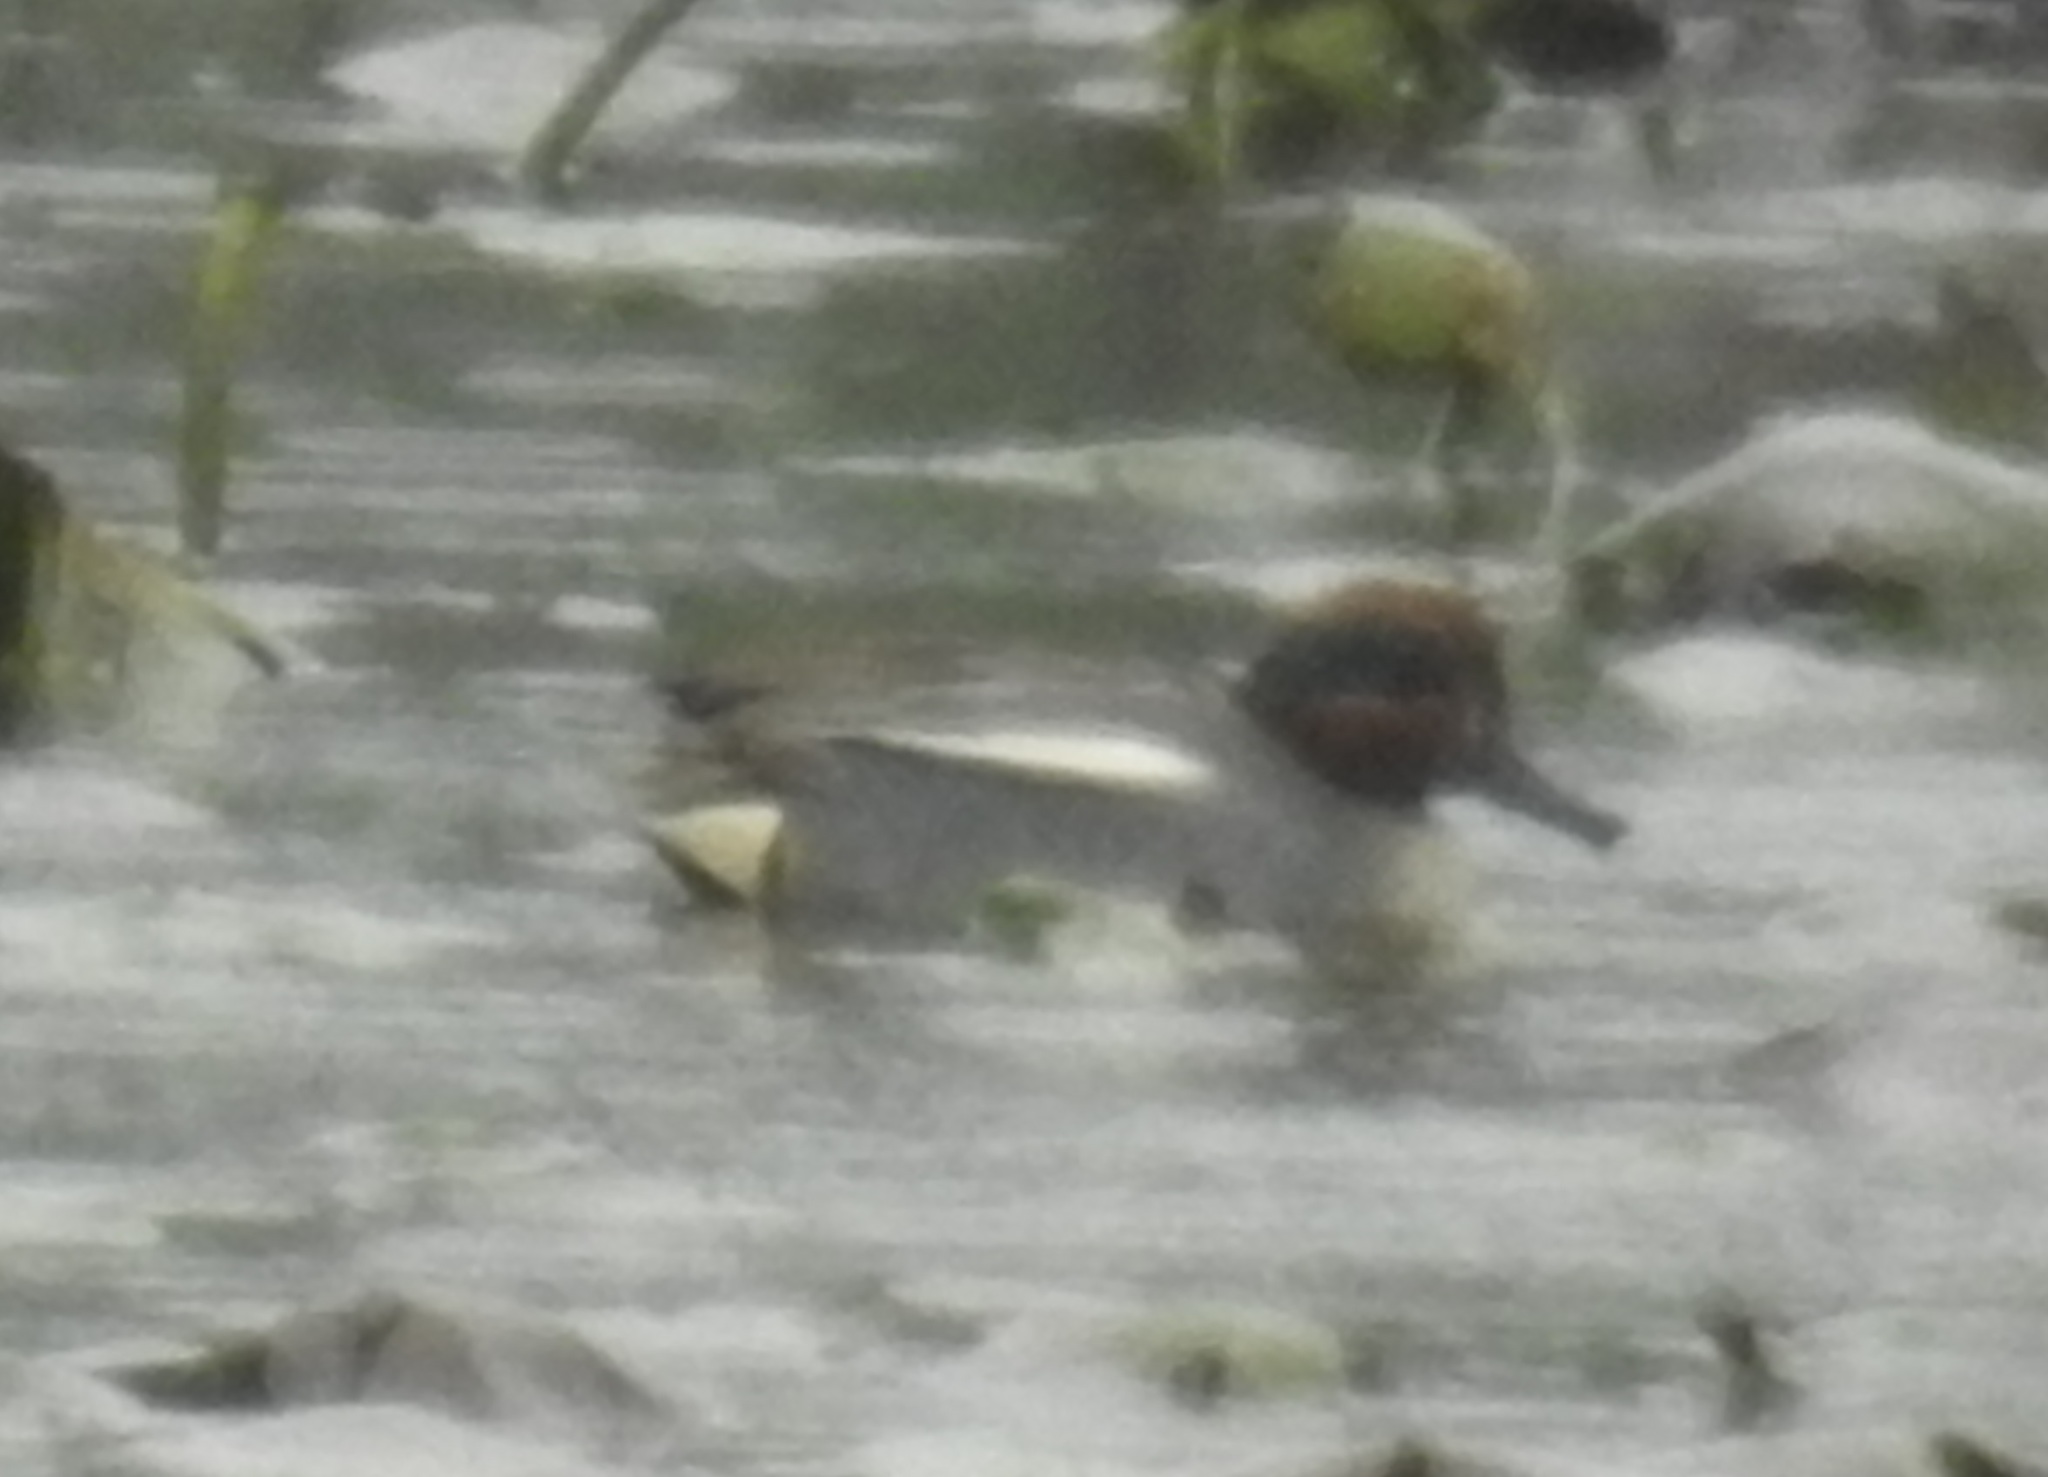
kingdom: Animalia
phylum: Chordata
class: Aves
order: Anseriformes
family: Anatidae
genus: Anas
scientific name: Anas crecca
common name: Eurasian teal
